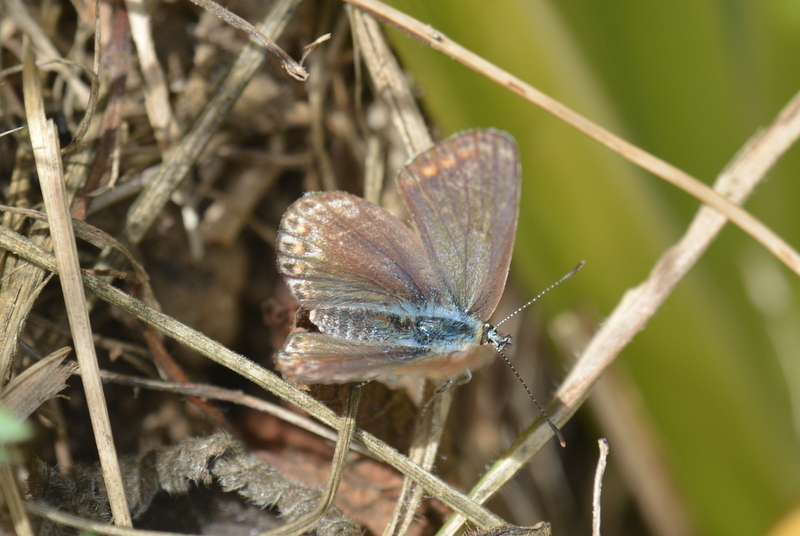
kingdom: Animalia
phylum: Arthropoda
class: Insecta
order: Lepidoptera
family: Lycaenidae
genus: Polyommatus
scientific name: Polyommatus icarus
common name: Common blue
